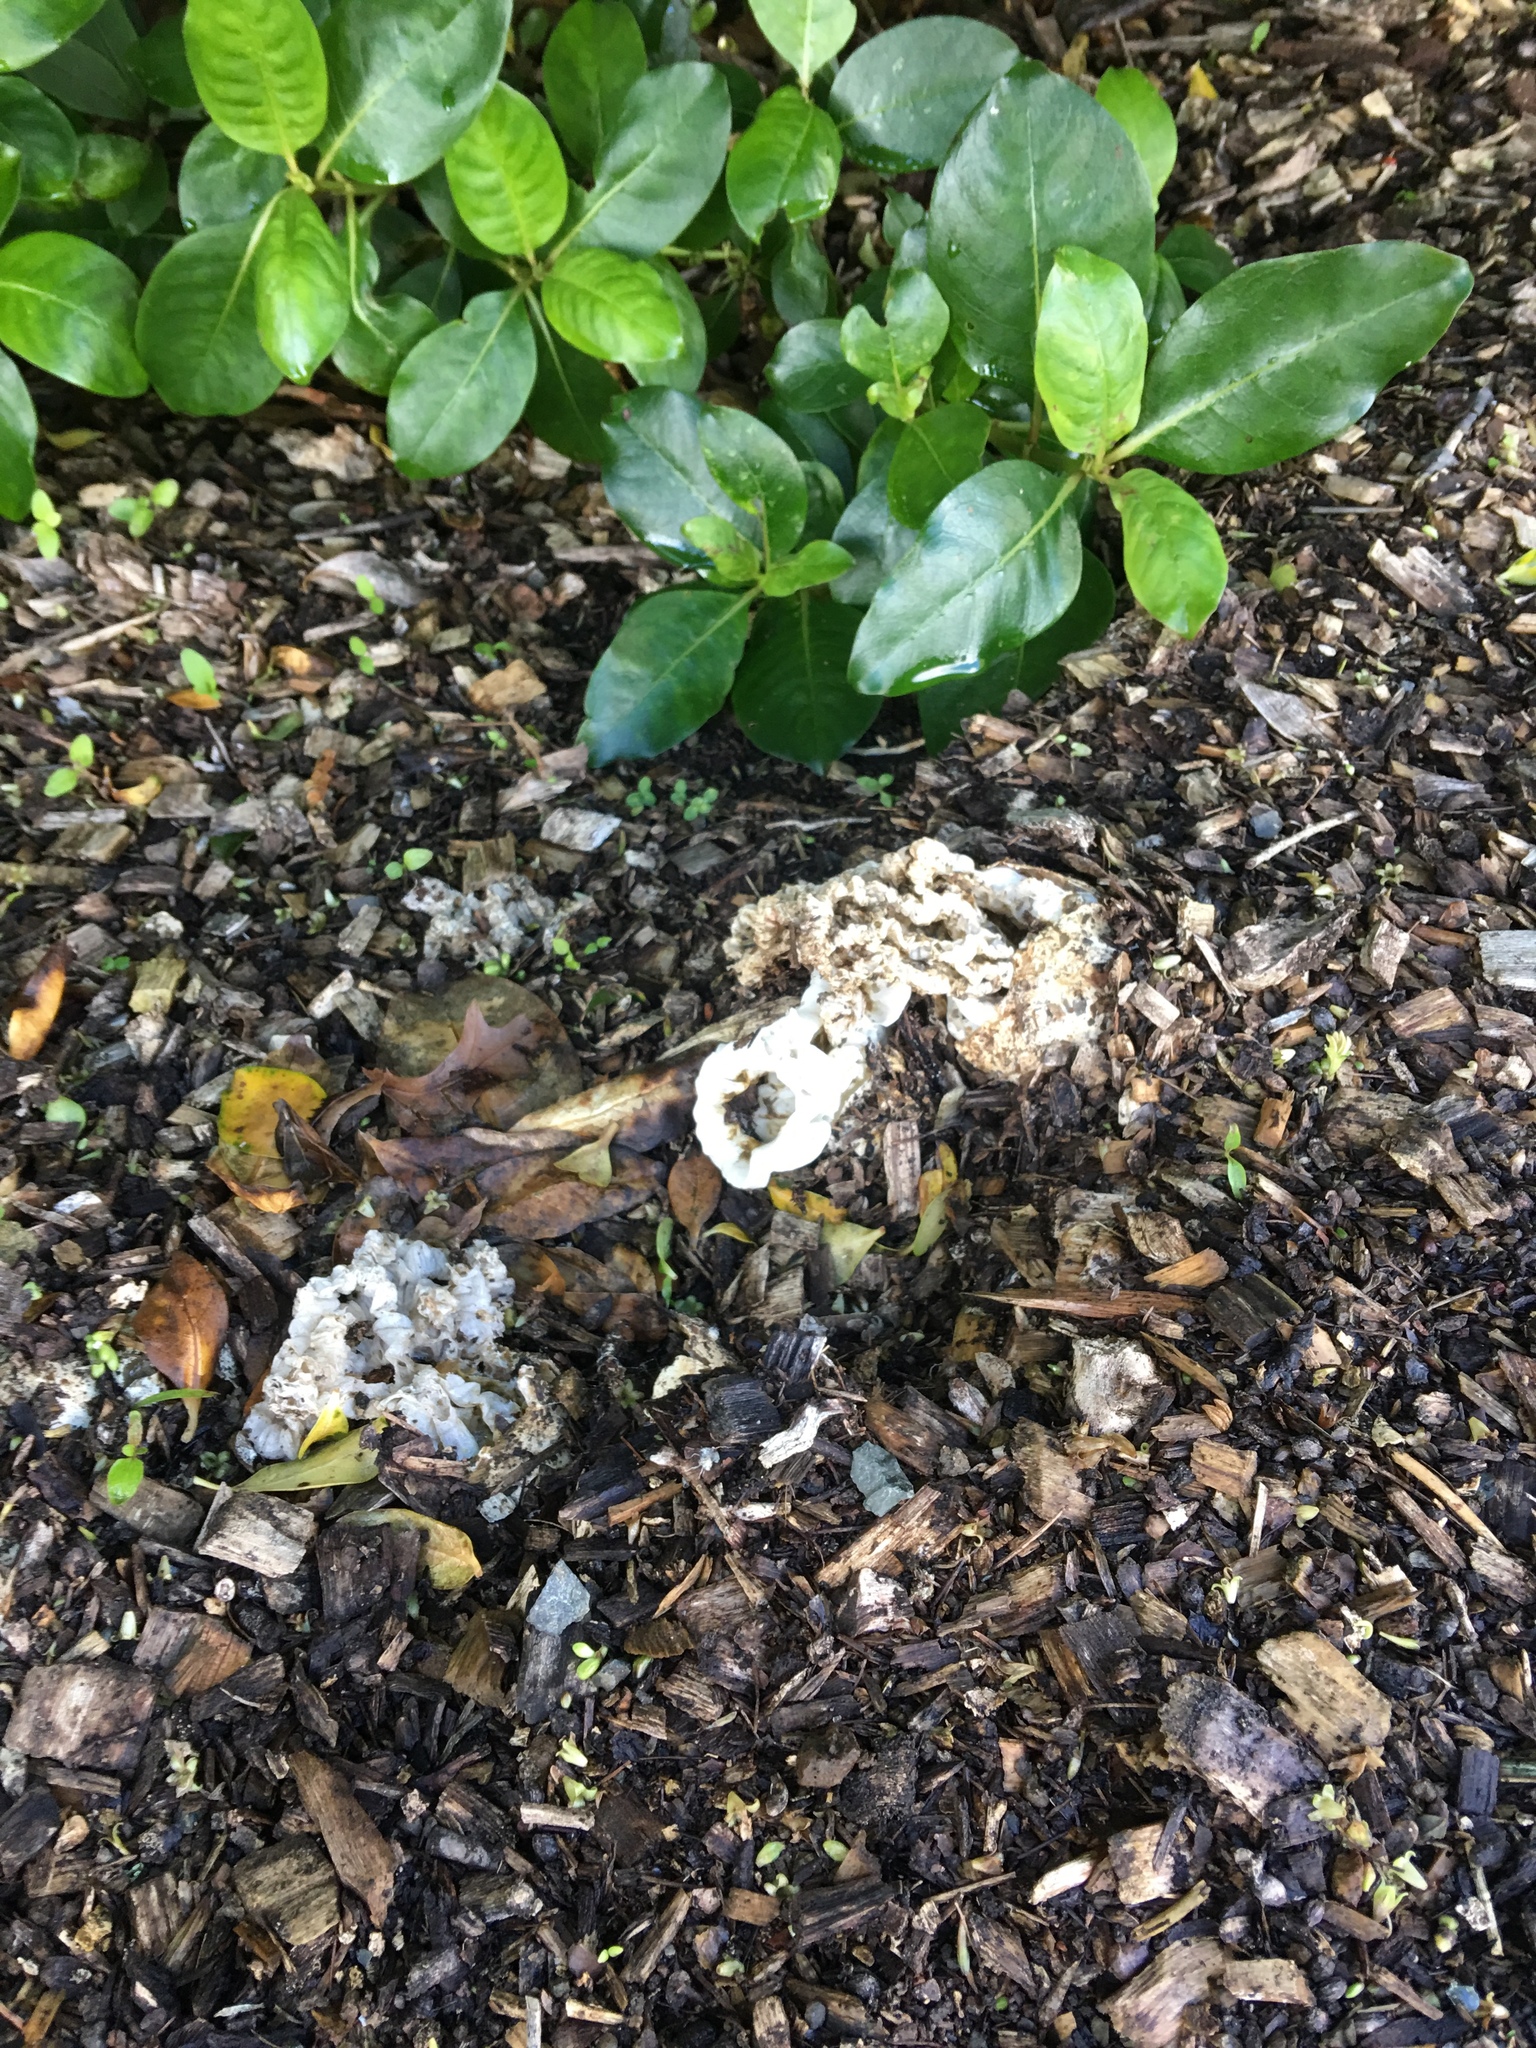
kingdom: Fungi
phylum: Basidiomycota
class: Agaricomycetes
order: Phallales
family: Phallaceae
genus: Ileodictyon
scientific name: Ileodictyon cibarium
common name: Basket fungus
